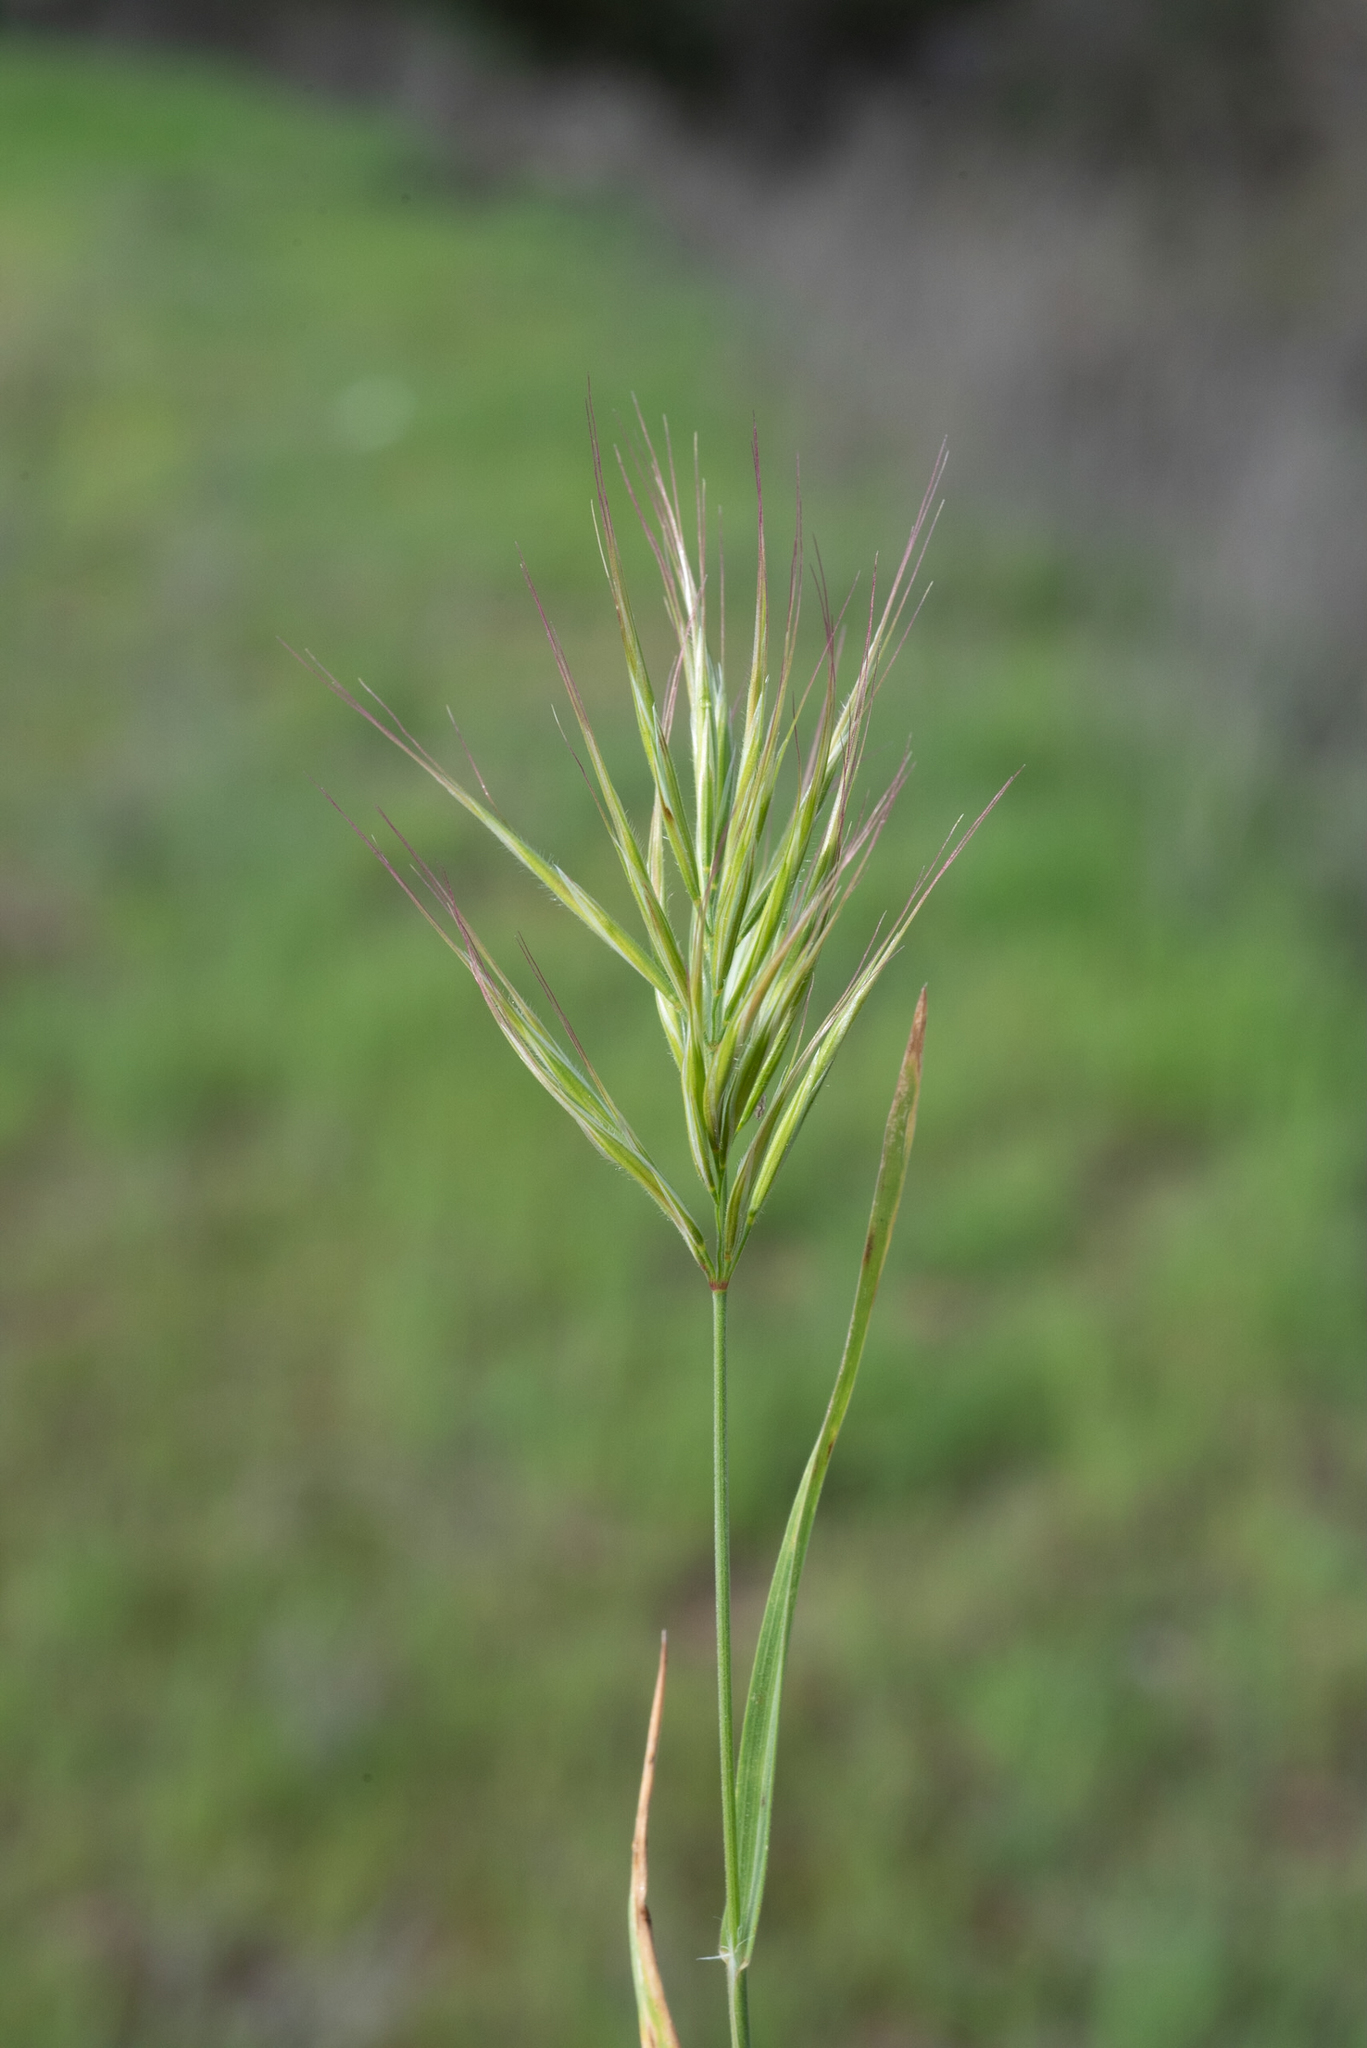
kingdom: Plantae
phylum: Tracheophyta
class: Liliopsida
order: Poales
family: Poaceae
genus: Bromus
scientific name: Bromus rubens
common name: Red brome
